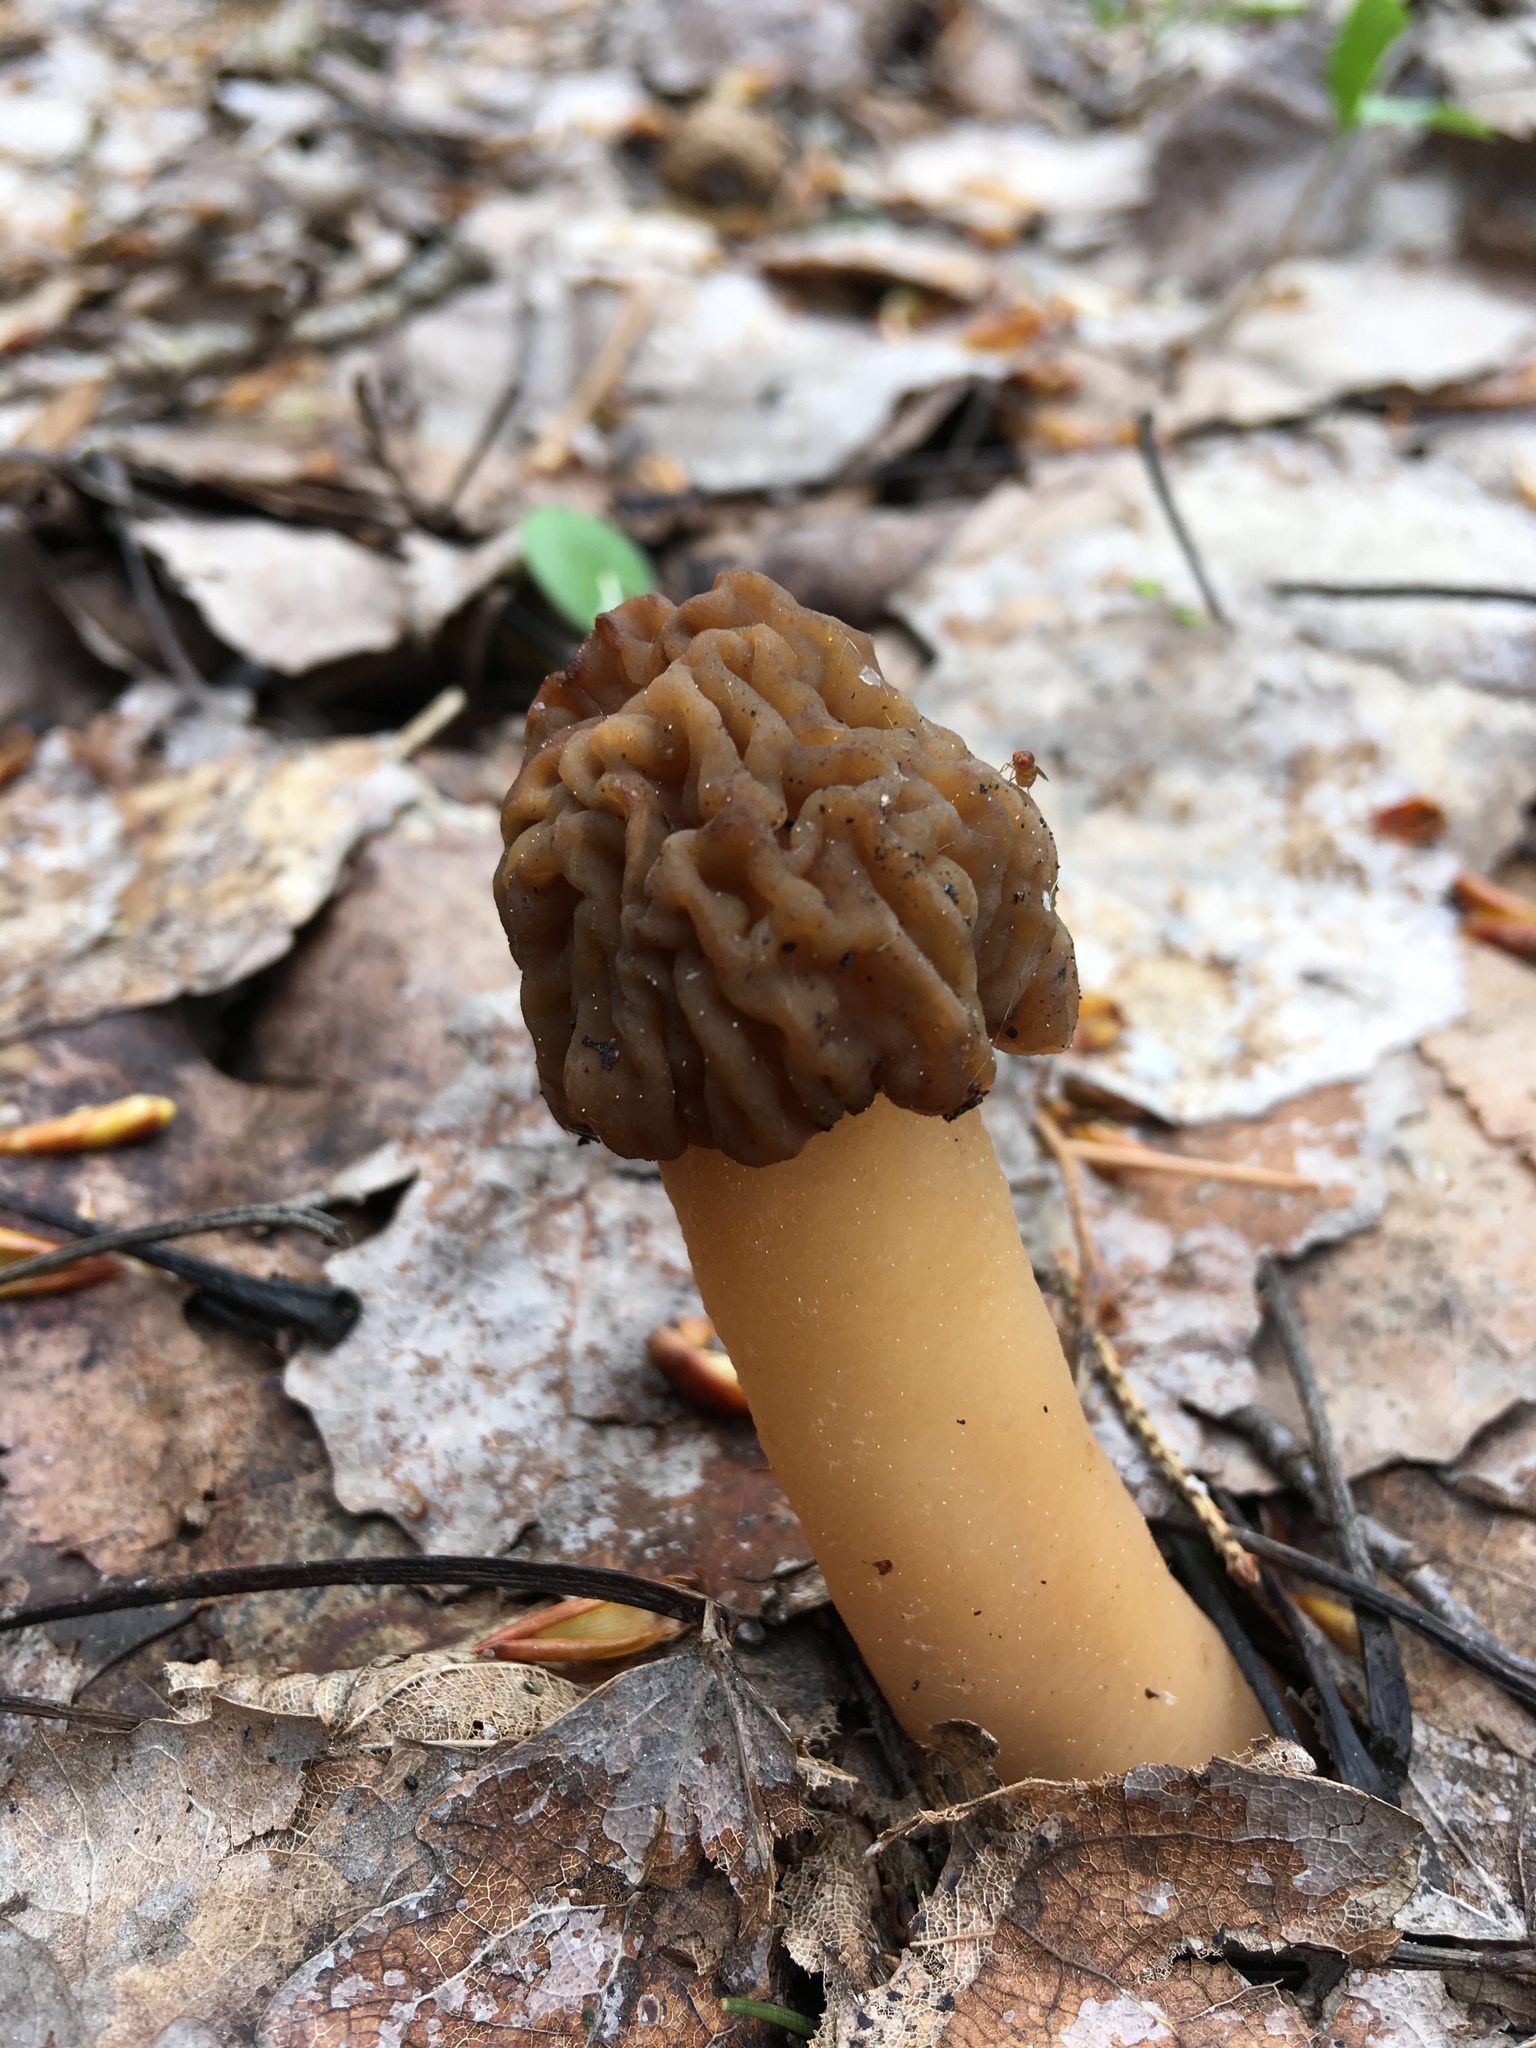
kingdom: Fungi
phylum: Ascomycota
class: Pezizomycetes
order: Pezizales
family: Morchellaceae
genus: Verpa
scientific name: Verpa bohemica
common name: Wrinkled thimble morel
